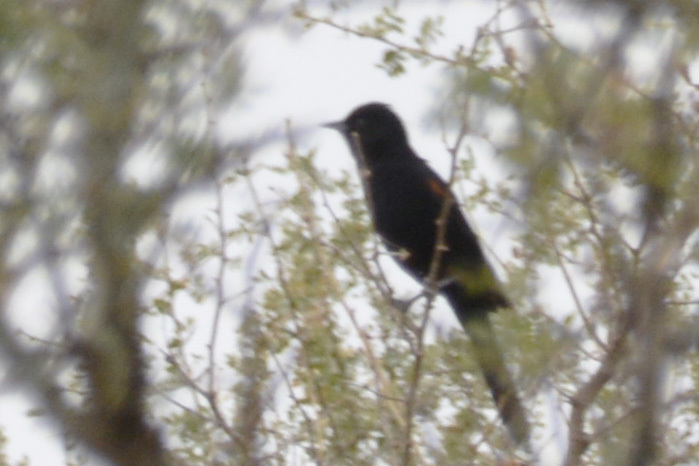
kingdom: Animalia
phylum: Chordata
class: Aves
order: Passeriformes
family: Icteridae
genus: Icterus
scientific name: Icterus cayanensis
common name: Epaulet oriole
